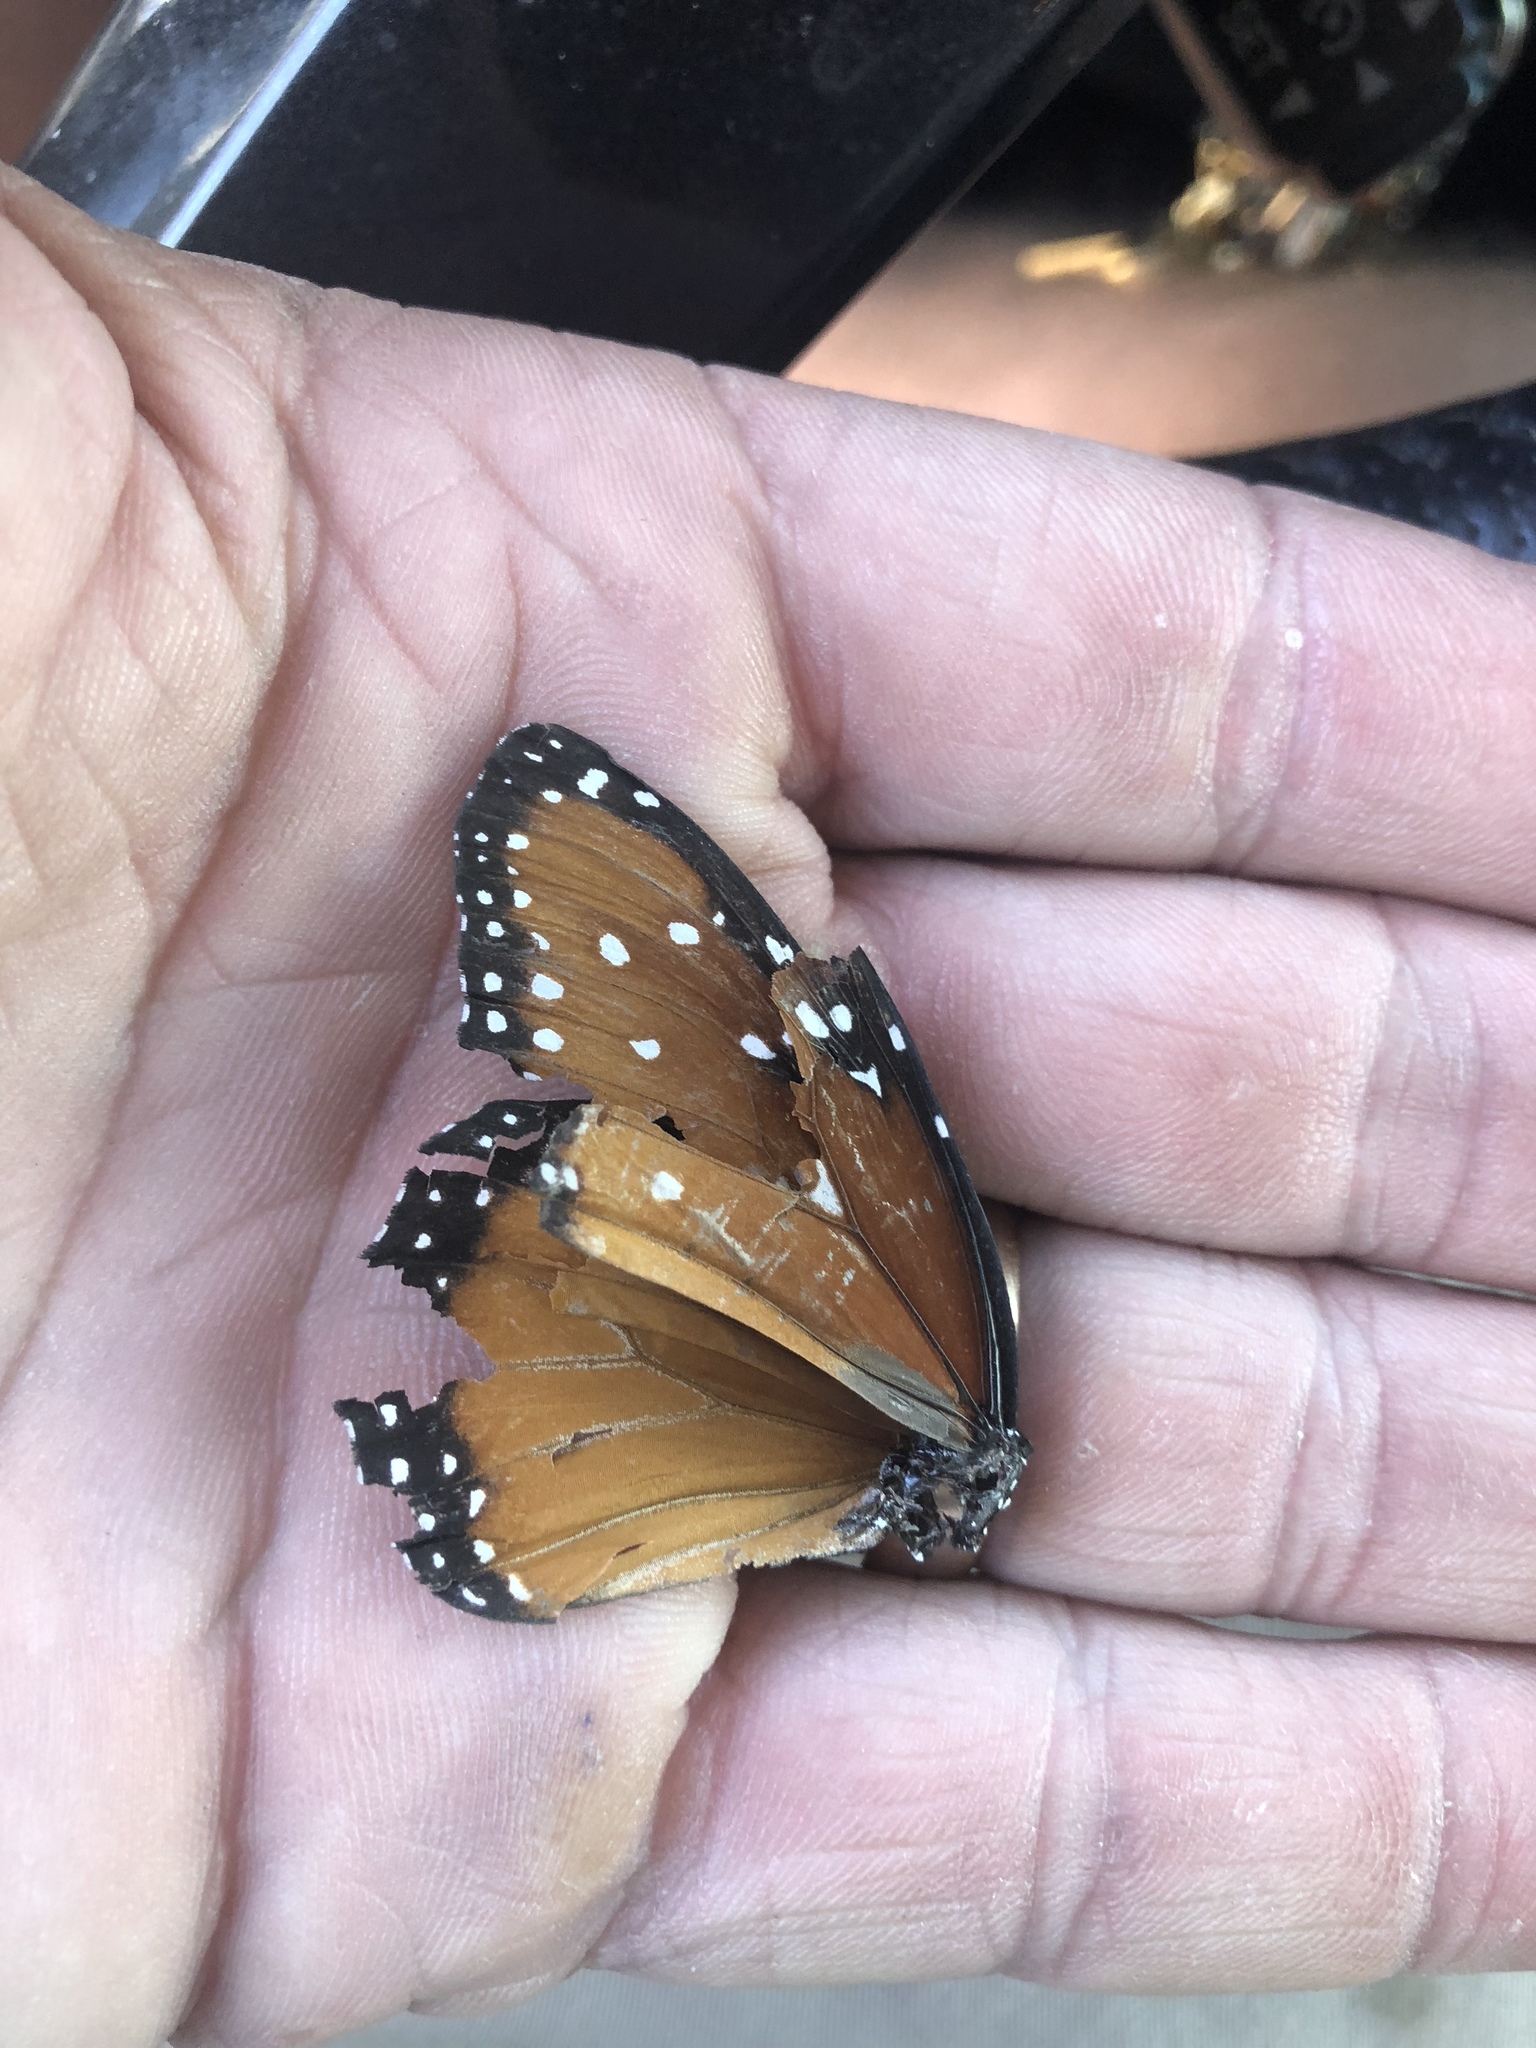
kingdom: Animalia
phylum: Arthropoda
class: Insecta
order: Lepidoptera
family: Nymphalidae
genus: Danaus
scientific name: Danaus gilippus
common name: Queen
